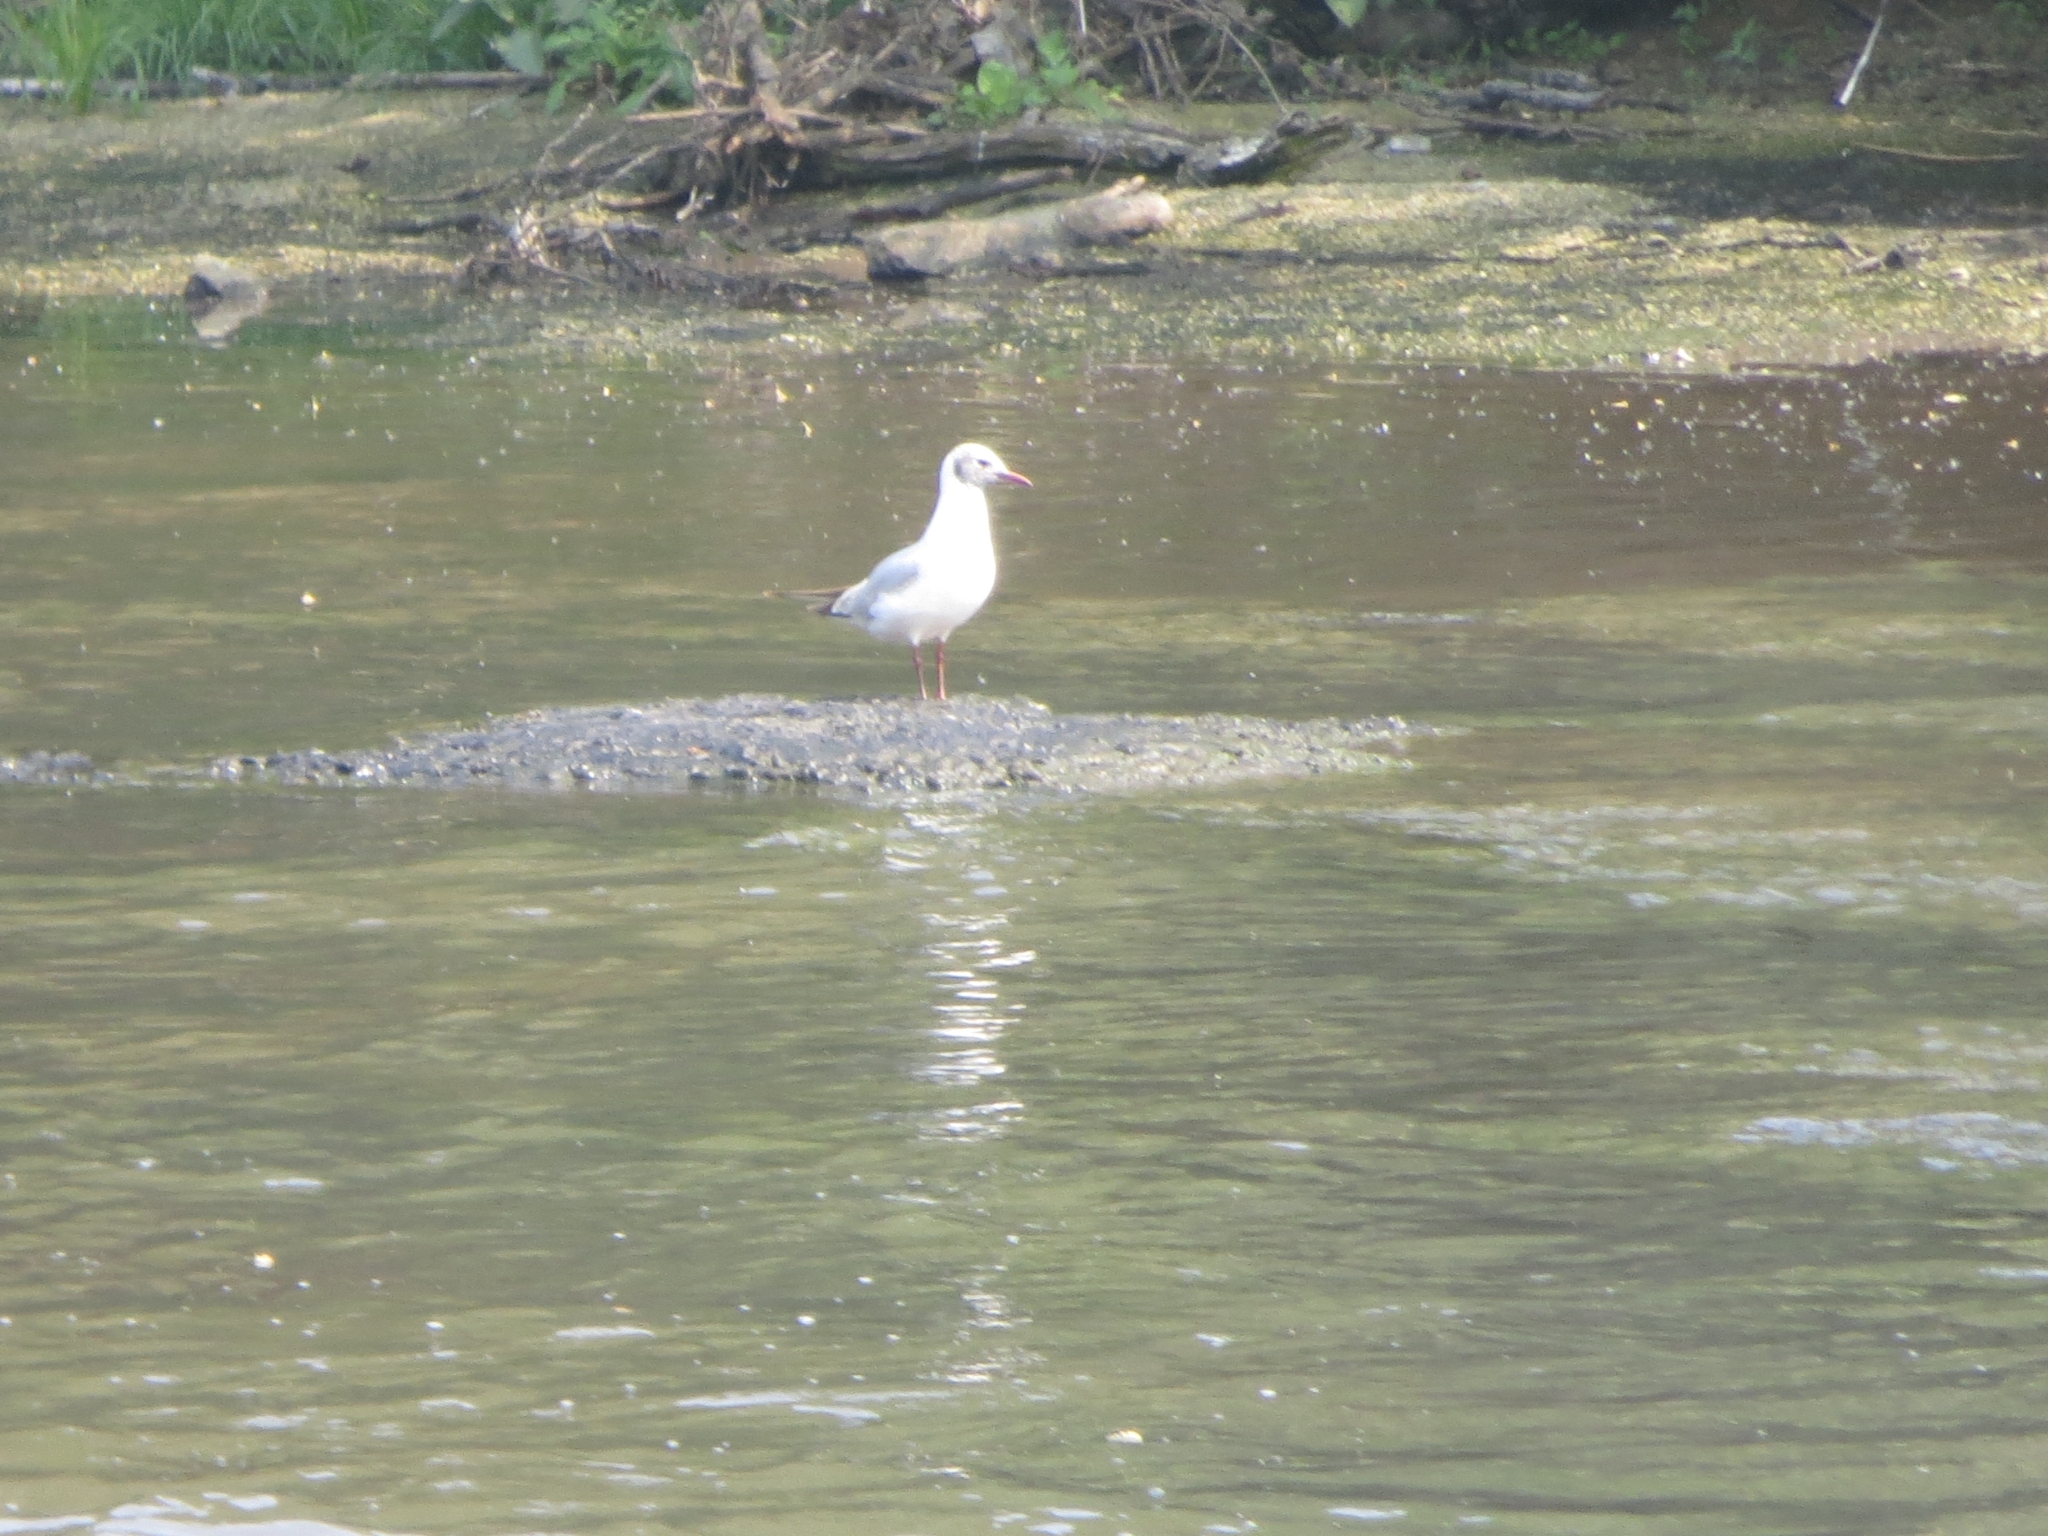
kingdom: Animalia
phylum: Chordata
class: Aves
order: Charadriiformes
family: Laridae
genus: Chroicocephalus
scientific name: Chroicocephalus ridibundus
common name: Black-headed gull
